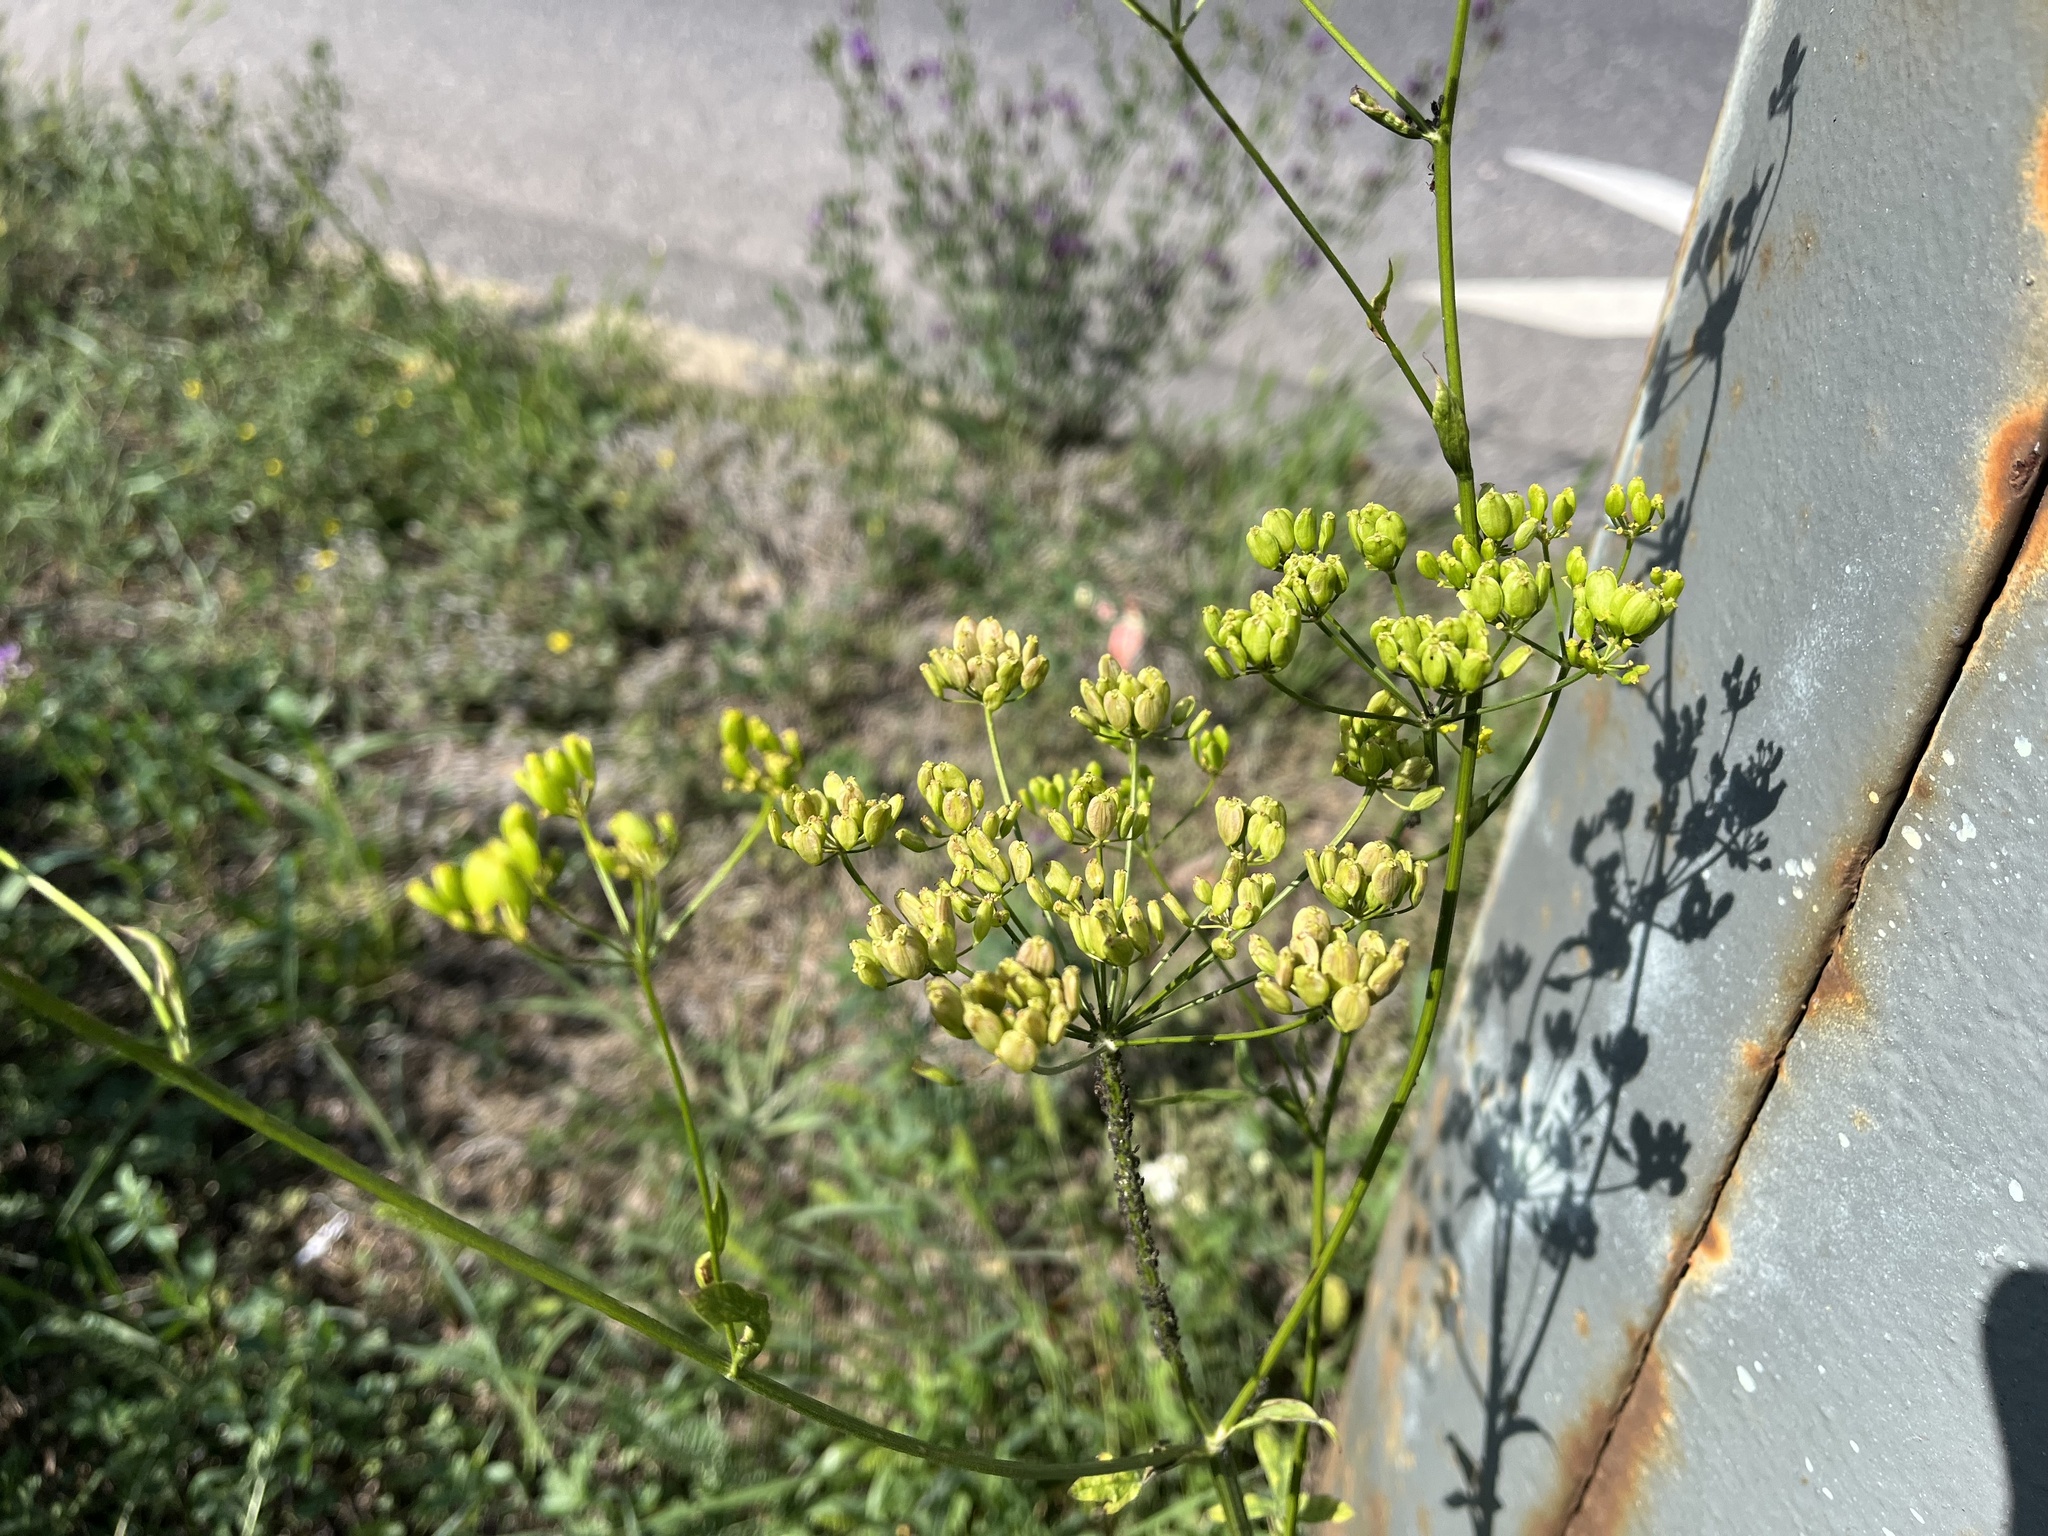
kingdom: Plantae
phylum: Tracheophyta
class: Magnoliopsida
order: Apiales
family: Apiaceae
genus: Pastinaca
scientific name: Pastinaca sativa
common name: Wild parsnip
